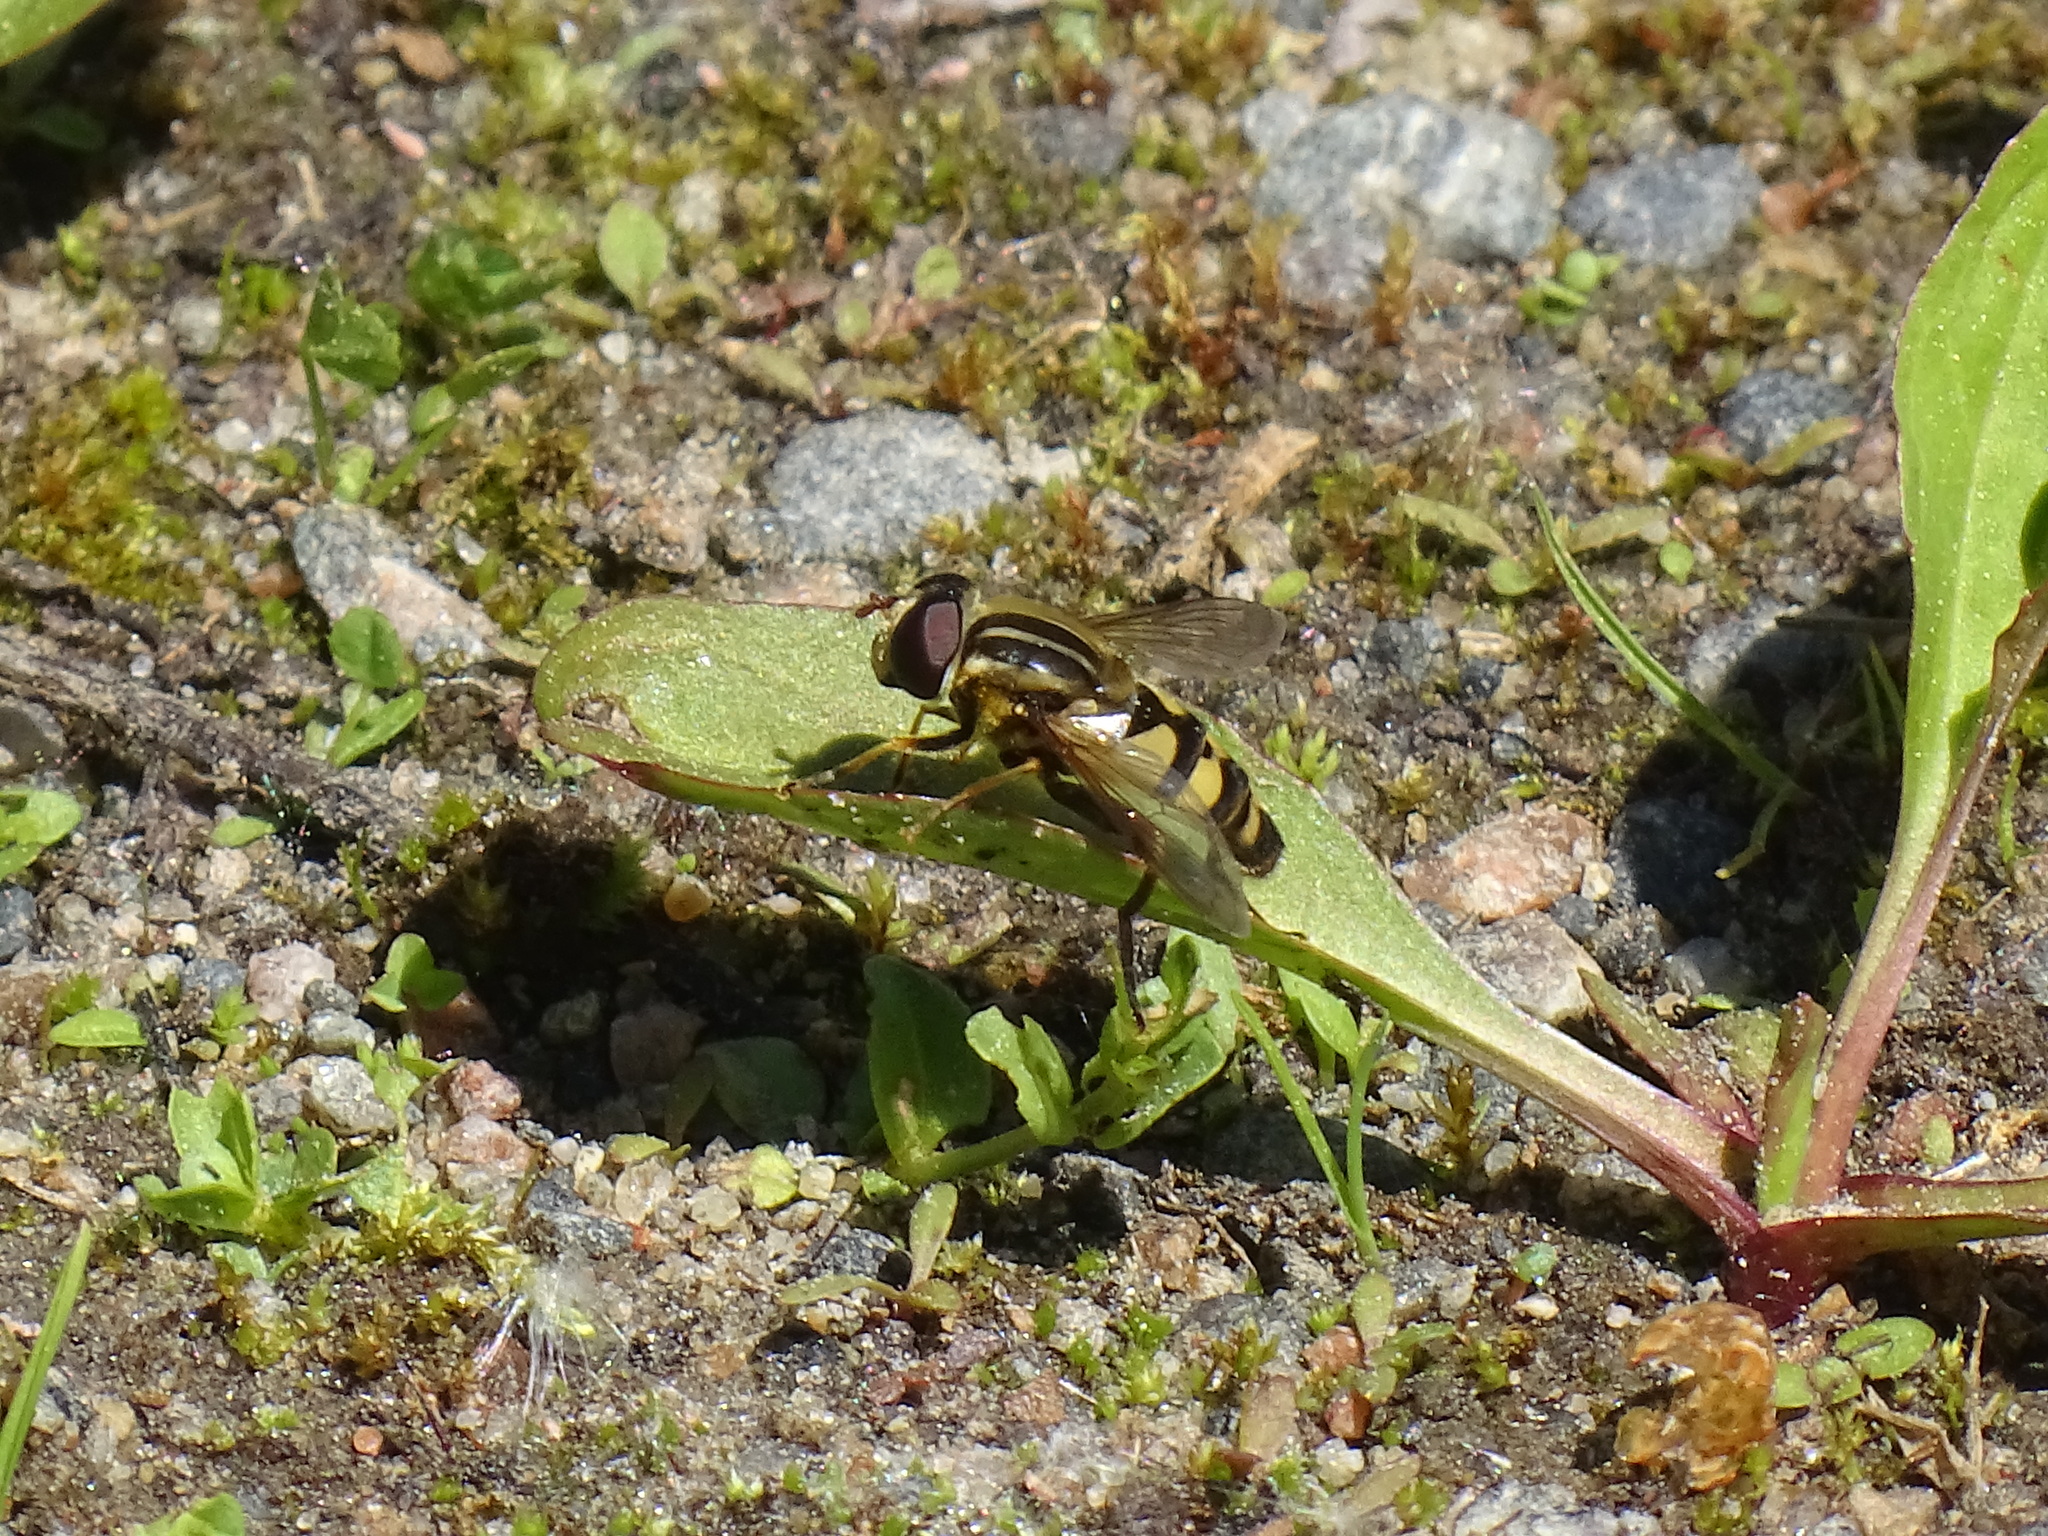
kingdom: Animalia
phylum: Arthropoda
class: Insecta
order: Diptera
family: Syrphidae
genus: Helophilus
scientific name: Helophilus fasciatus
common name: Narrow-headed marsh fly
